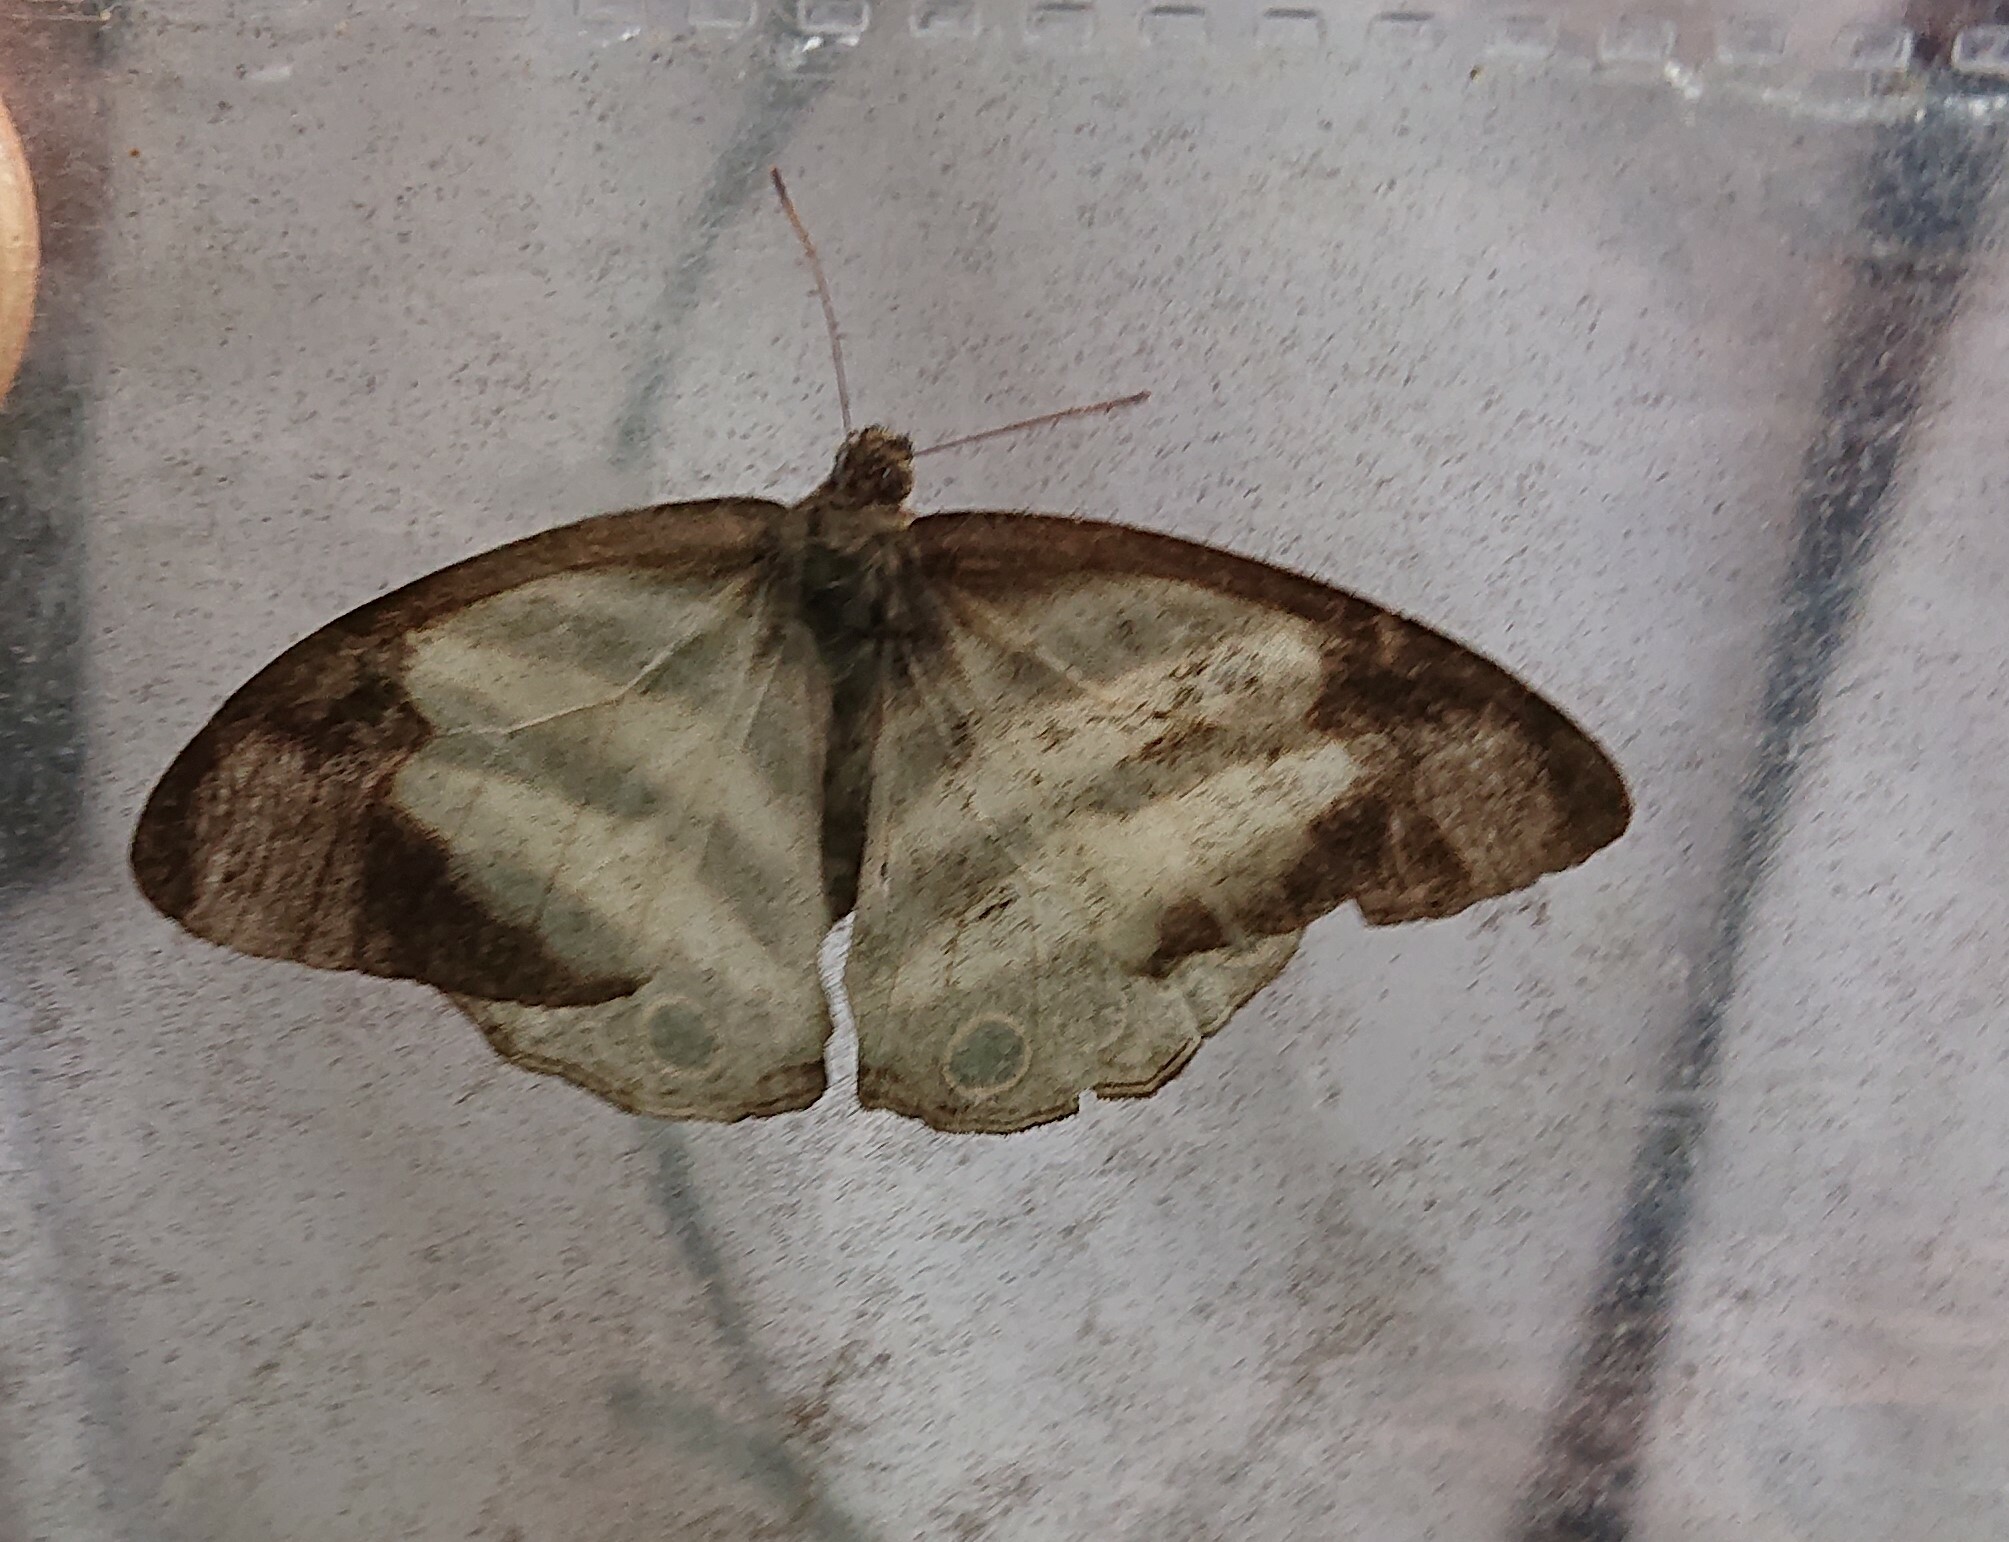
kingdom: Animalia
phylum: Arthropoda
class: Insecta
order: Lepidoptera
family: Nymphalidae
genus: Pareuptychia
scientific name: Pareuptychia hesione
